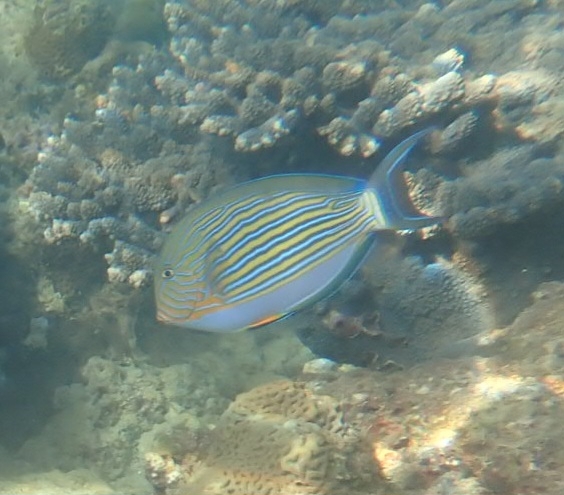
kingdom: Animalia
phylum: Chordata
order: Perciformes
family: Acanthuridae
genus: Acanthurus
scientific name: Acanthurus lineatus
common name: Striped surgeonfish
